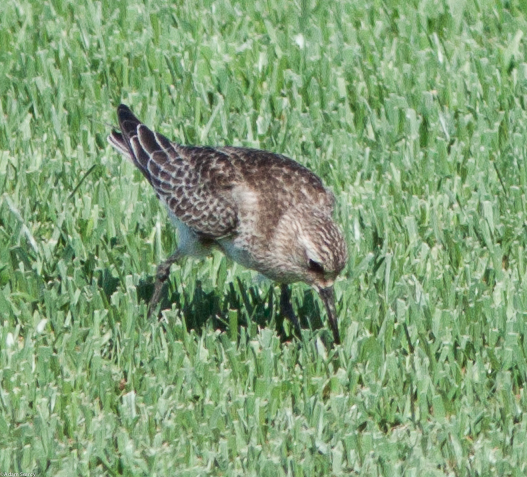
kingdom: Animalia
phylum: Chordata
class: Aves
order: Charadriiformes
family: Scolopacidae
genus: Calidris
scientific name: Calidris bairdii
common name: Baird's sandpiper
